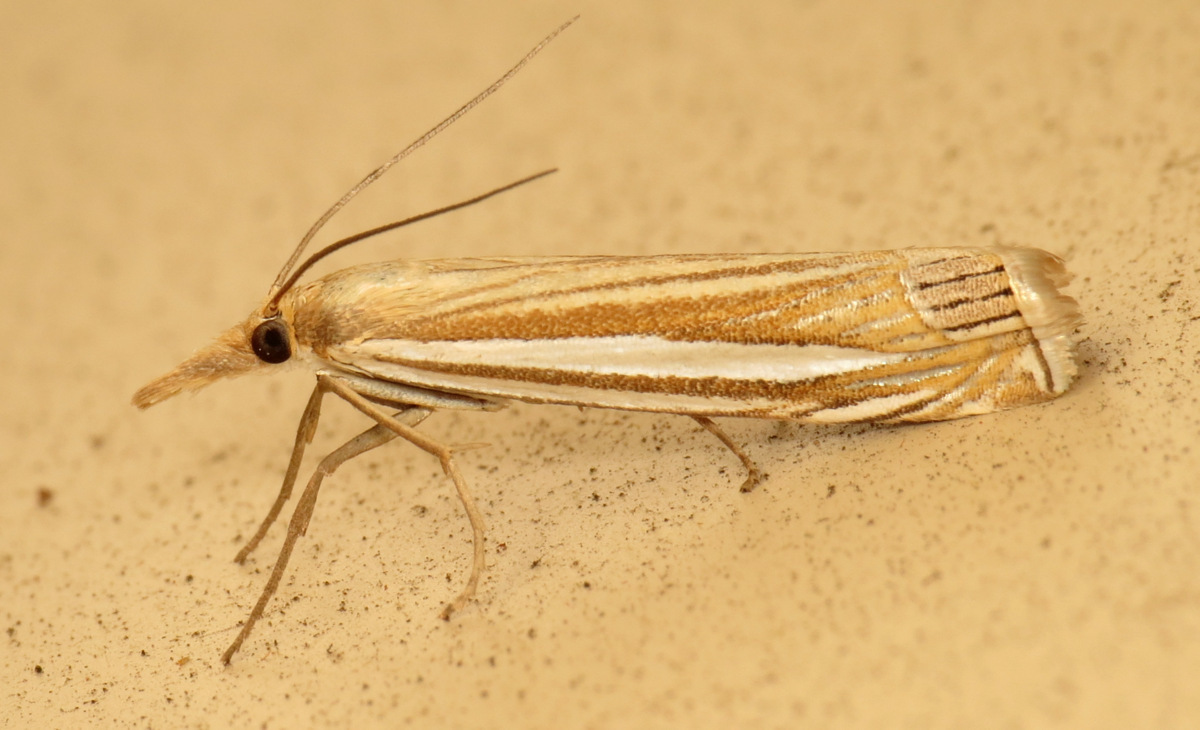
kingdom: Animalia
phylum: Arthropoda
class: Insecta
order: Lepidoptera
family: Crambidae
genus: Crambus
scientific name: Crambus laqueatellus
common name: Eastern grass-veneer
